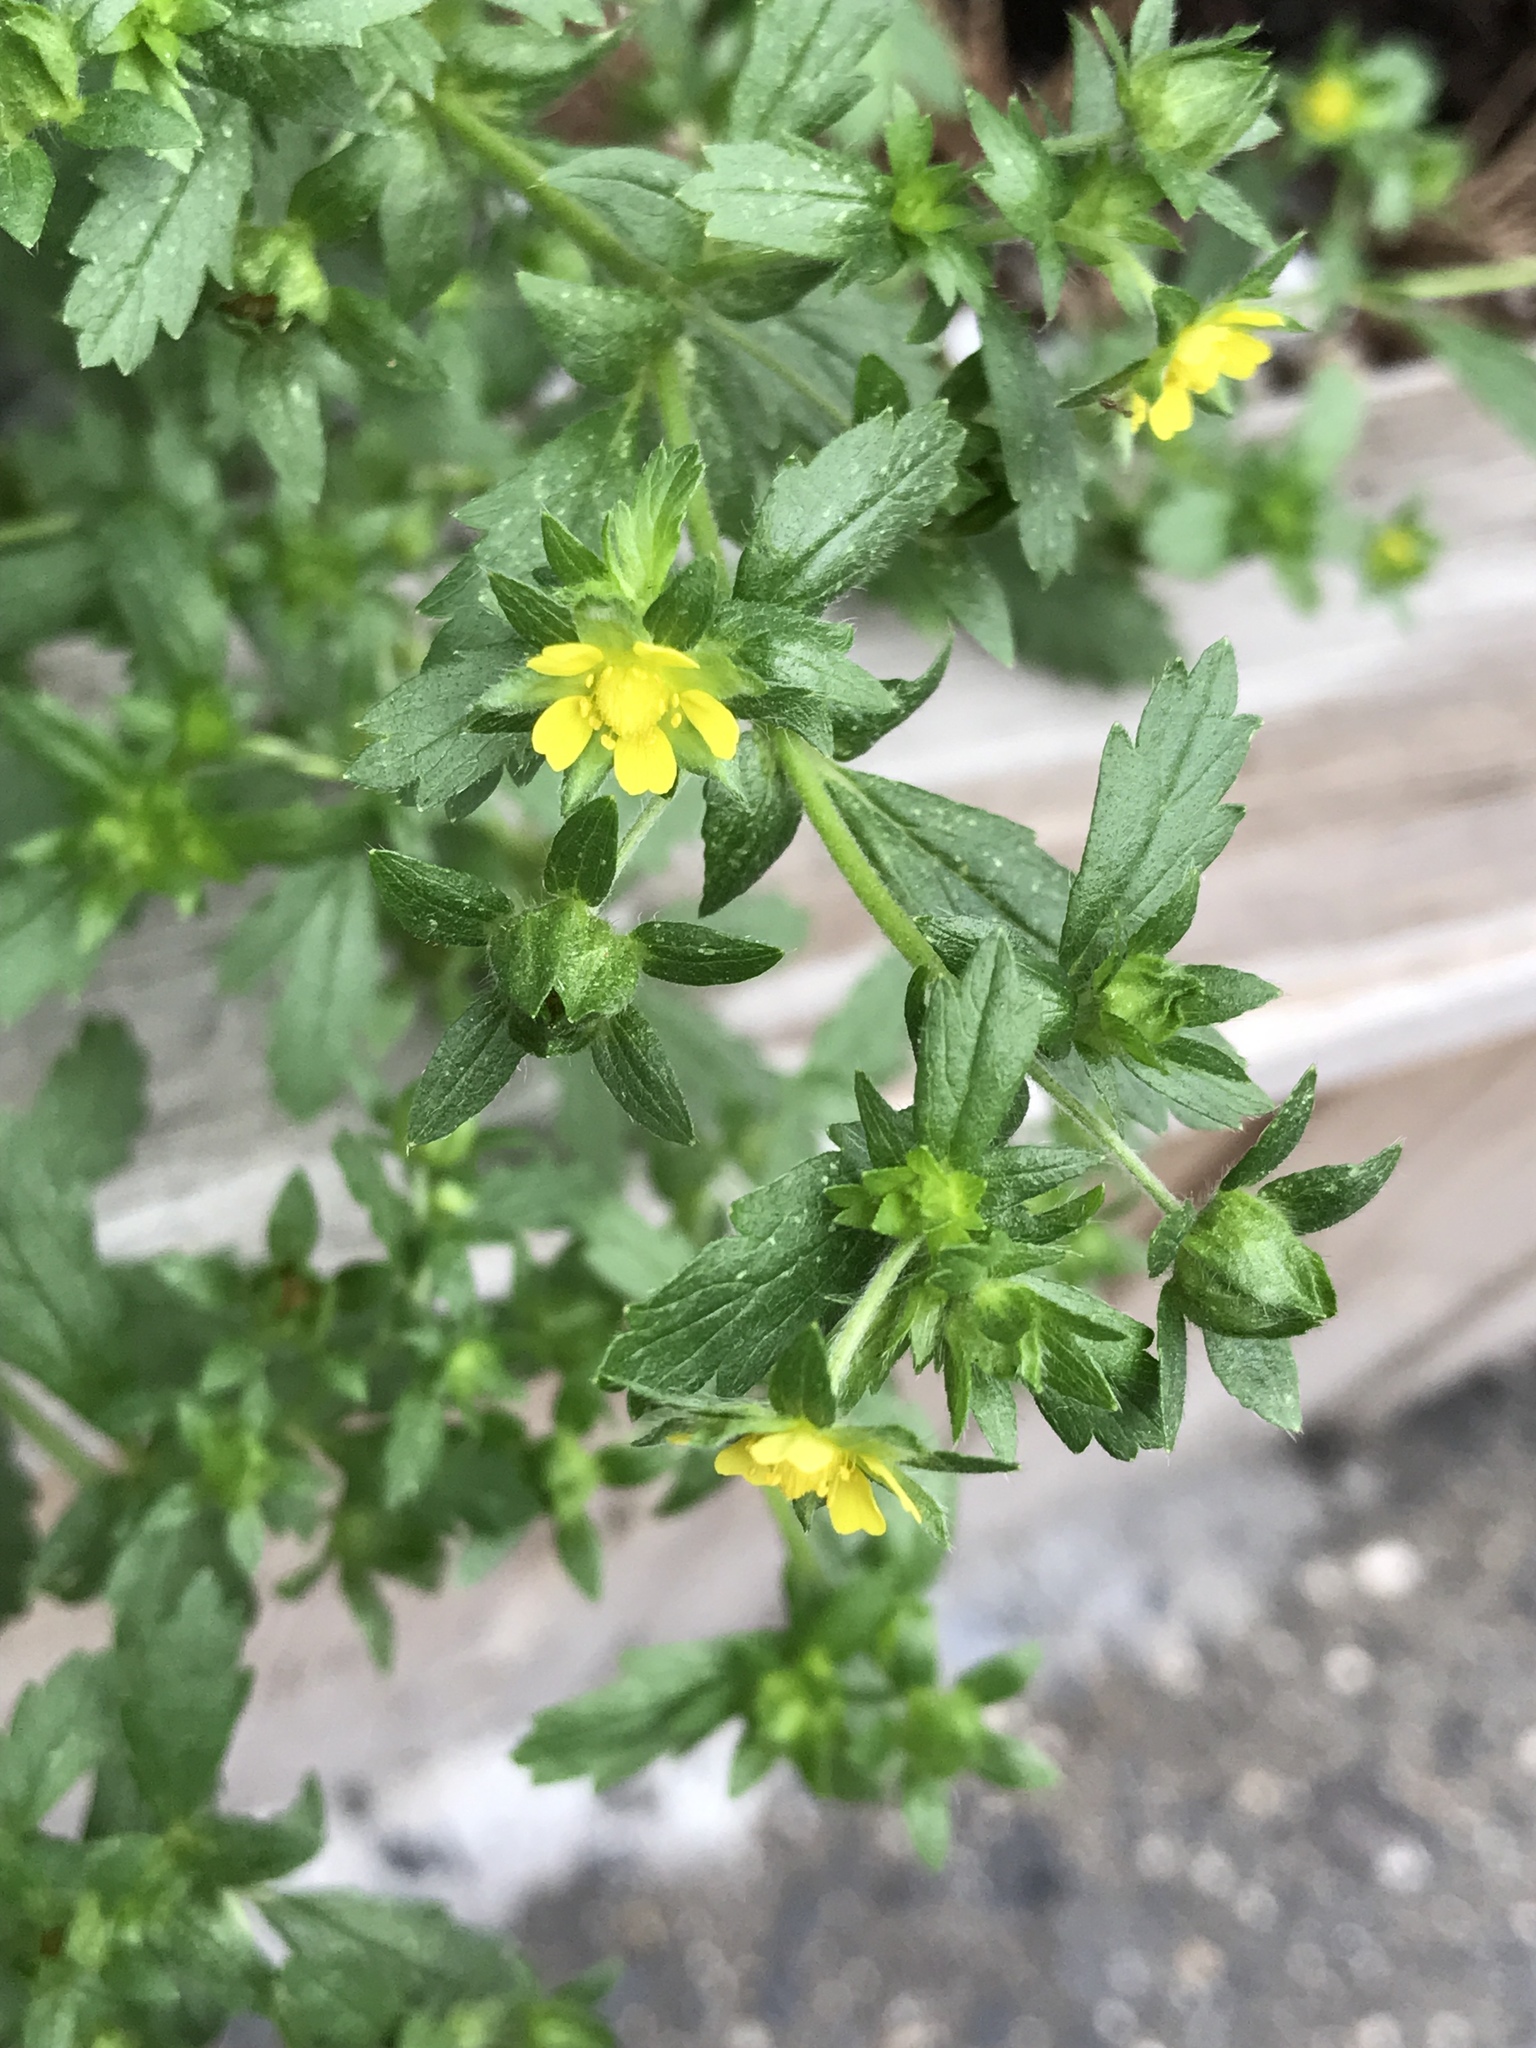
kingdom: Plantae
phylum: Tracheophyta
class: Magnoliopsida
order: Rosales
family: Rosaceae
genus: Potentilla
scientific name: Potentilla norvegica
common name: Ternate-leaved cinquefoil
